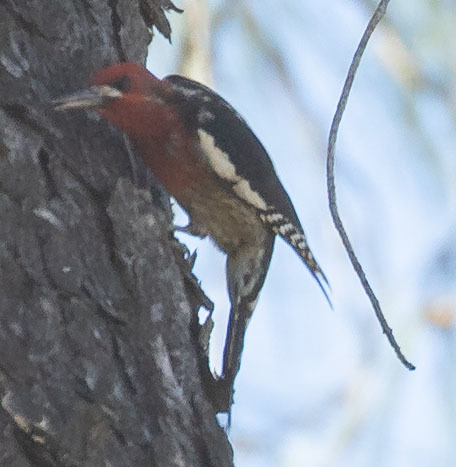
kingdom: Animalia
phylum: Chordata
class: Aves
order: Piciformes
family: Picidae
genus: Sphyrapicus
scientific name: Sphyrapicus ruber
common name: Red-breasted sapsucker
